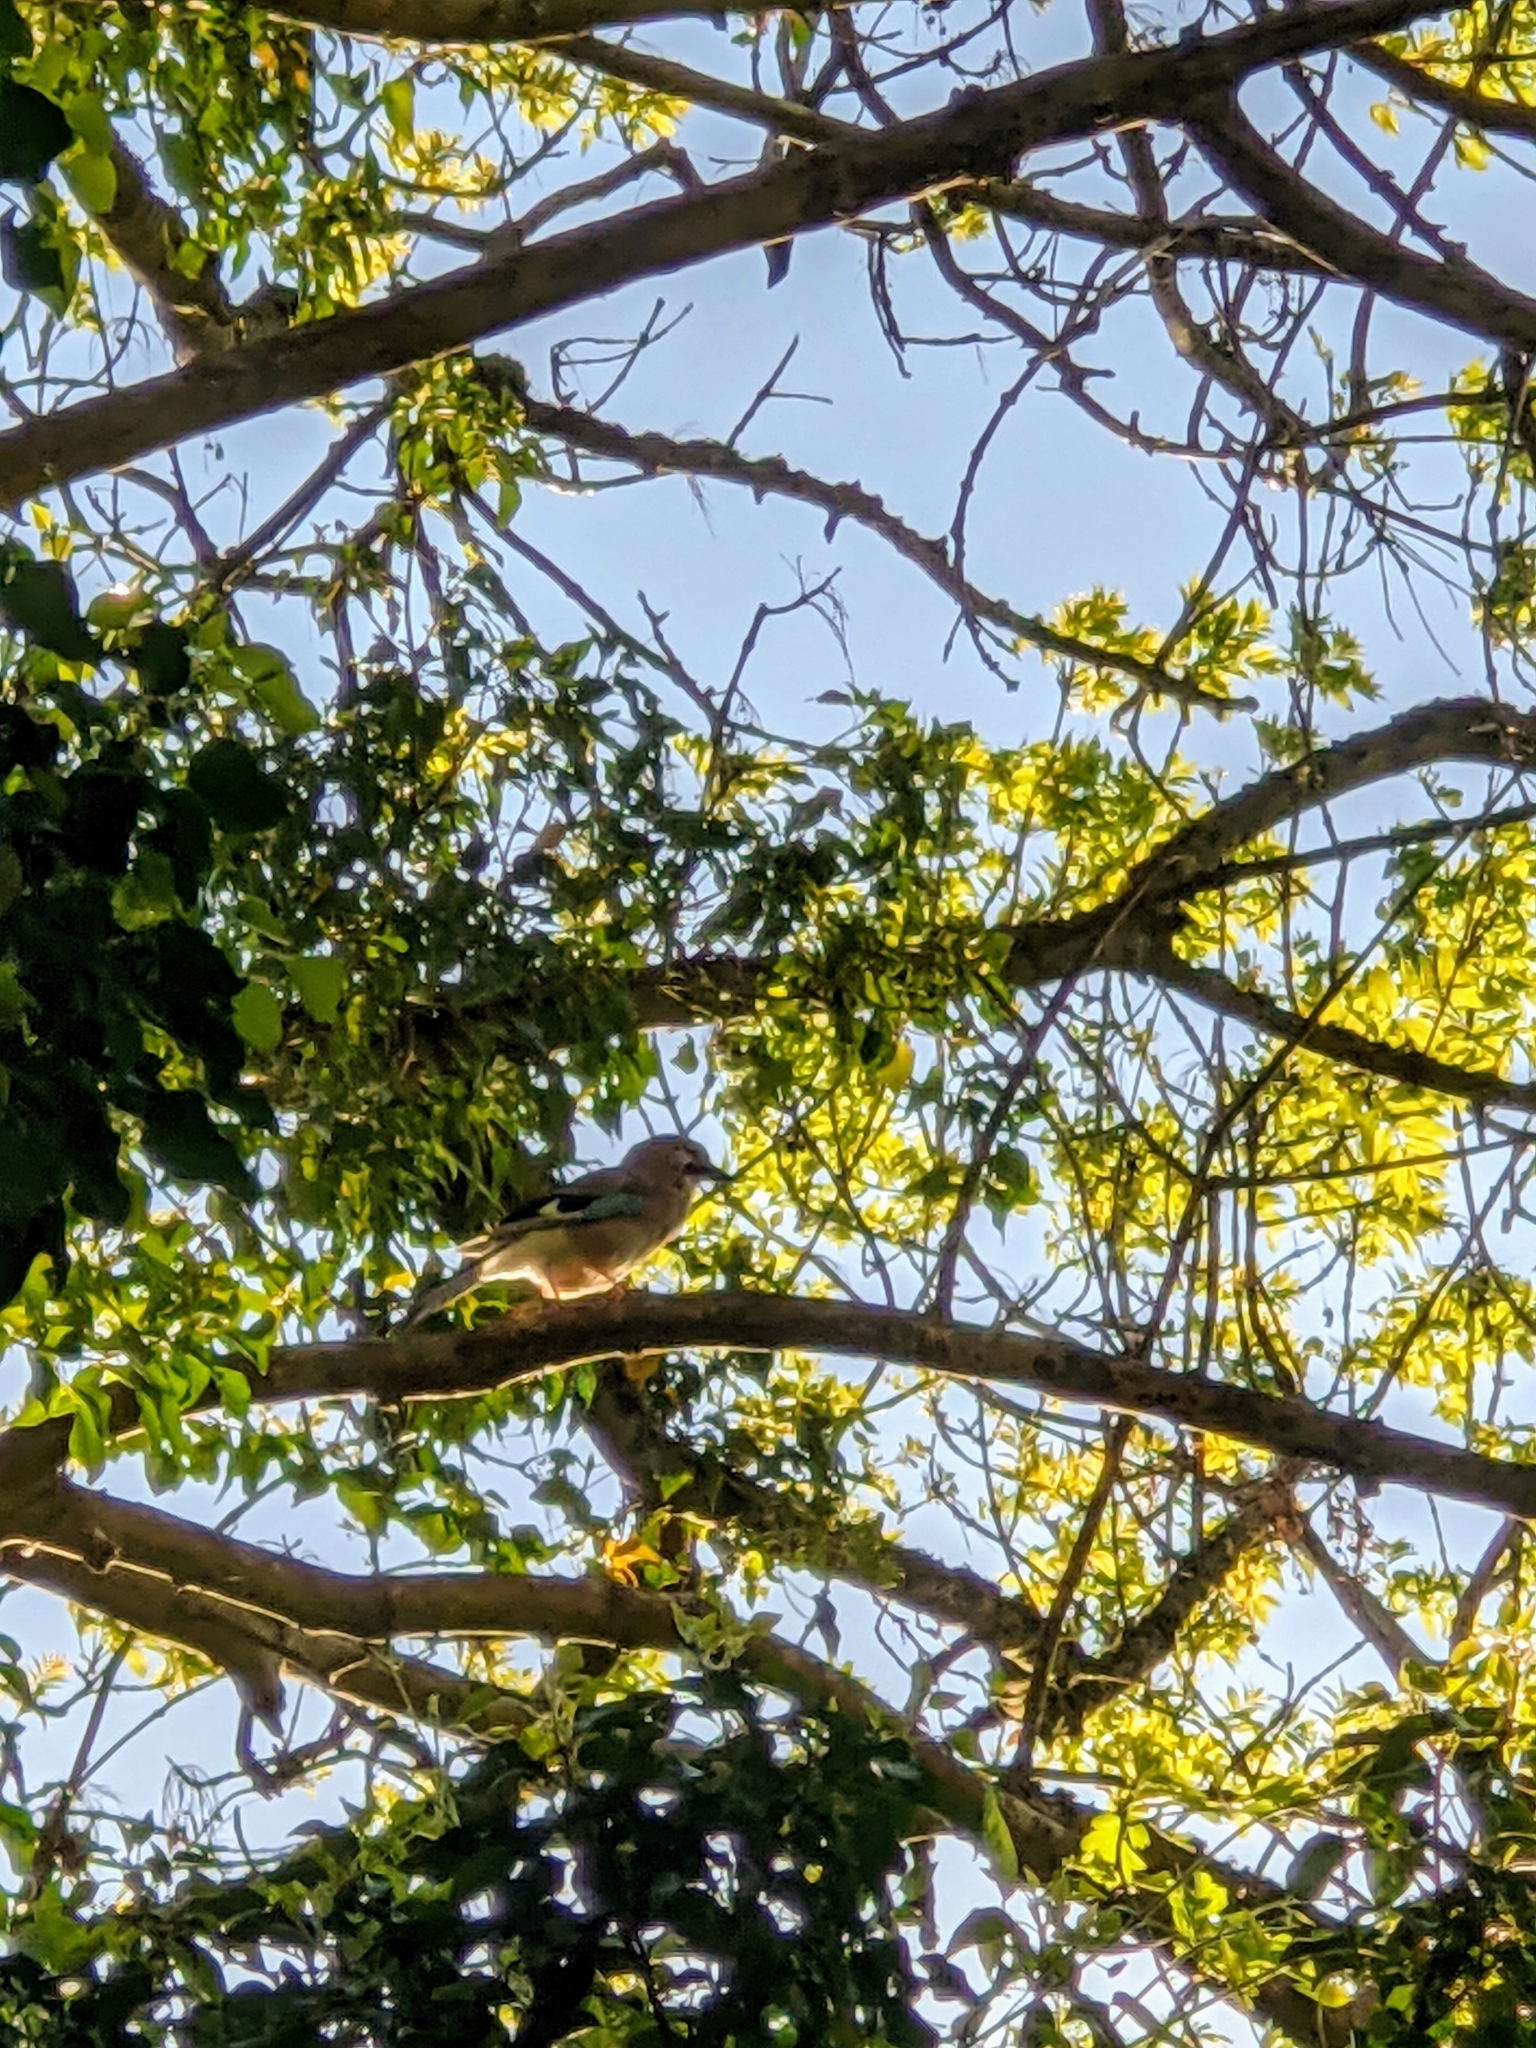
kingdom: Animalia
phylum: Chordata
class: Aves
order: Passeriformes
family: Corvidae
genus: Garrulus
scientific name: Garrulus glandarius
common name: Eurasian jay
